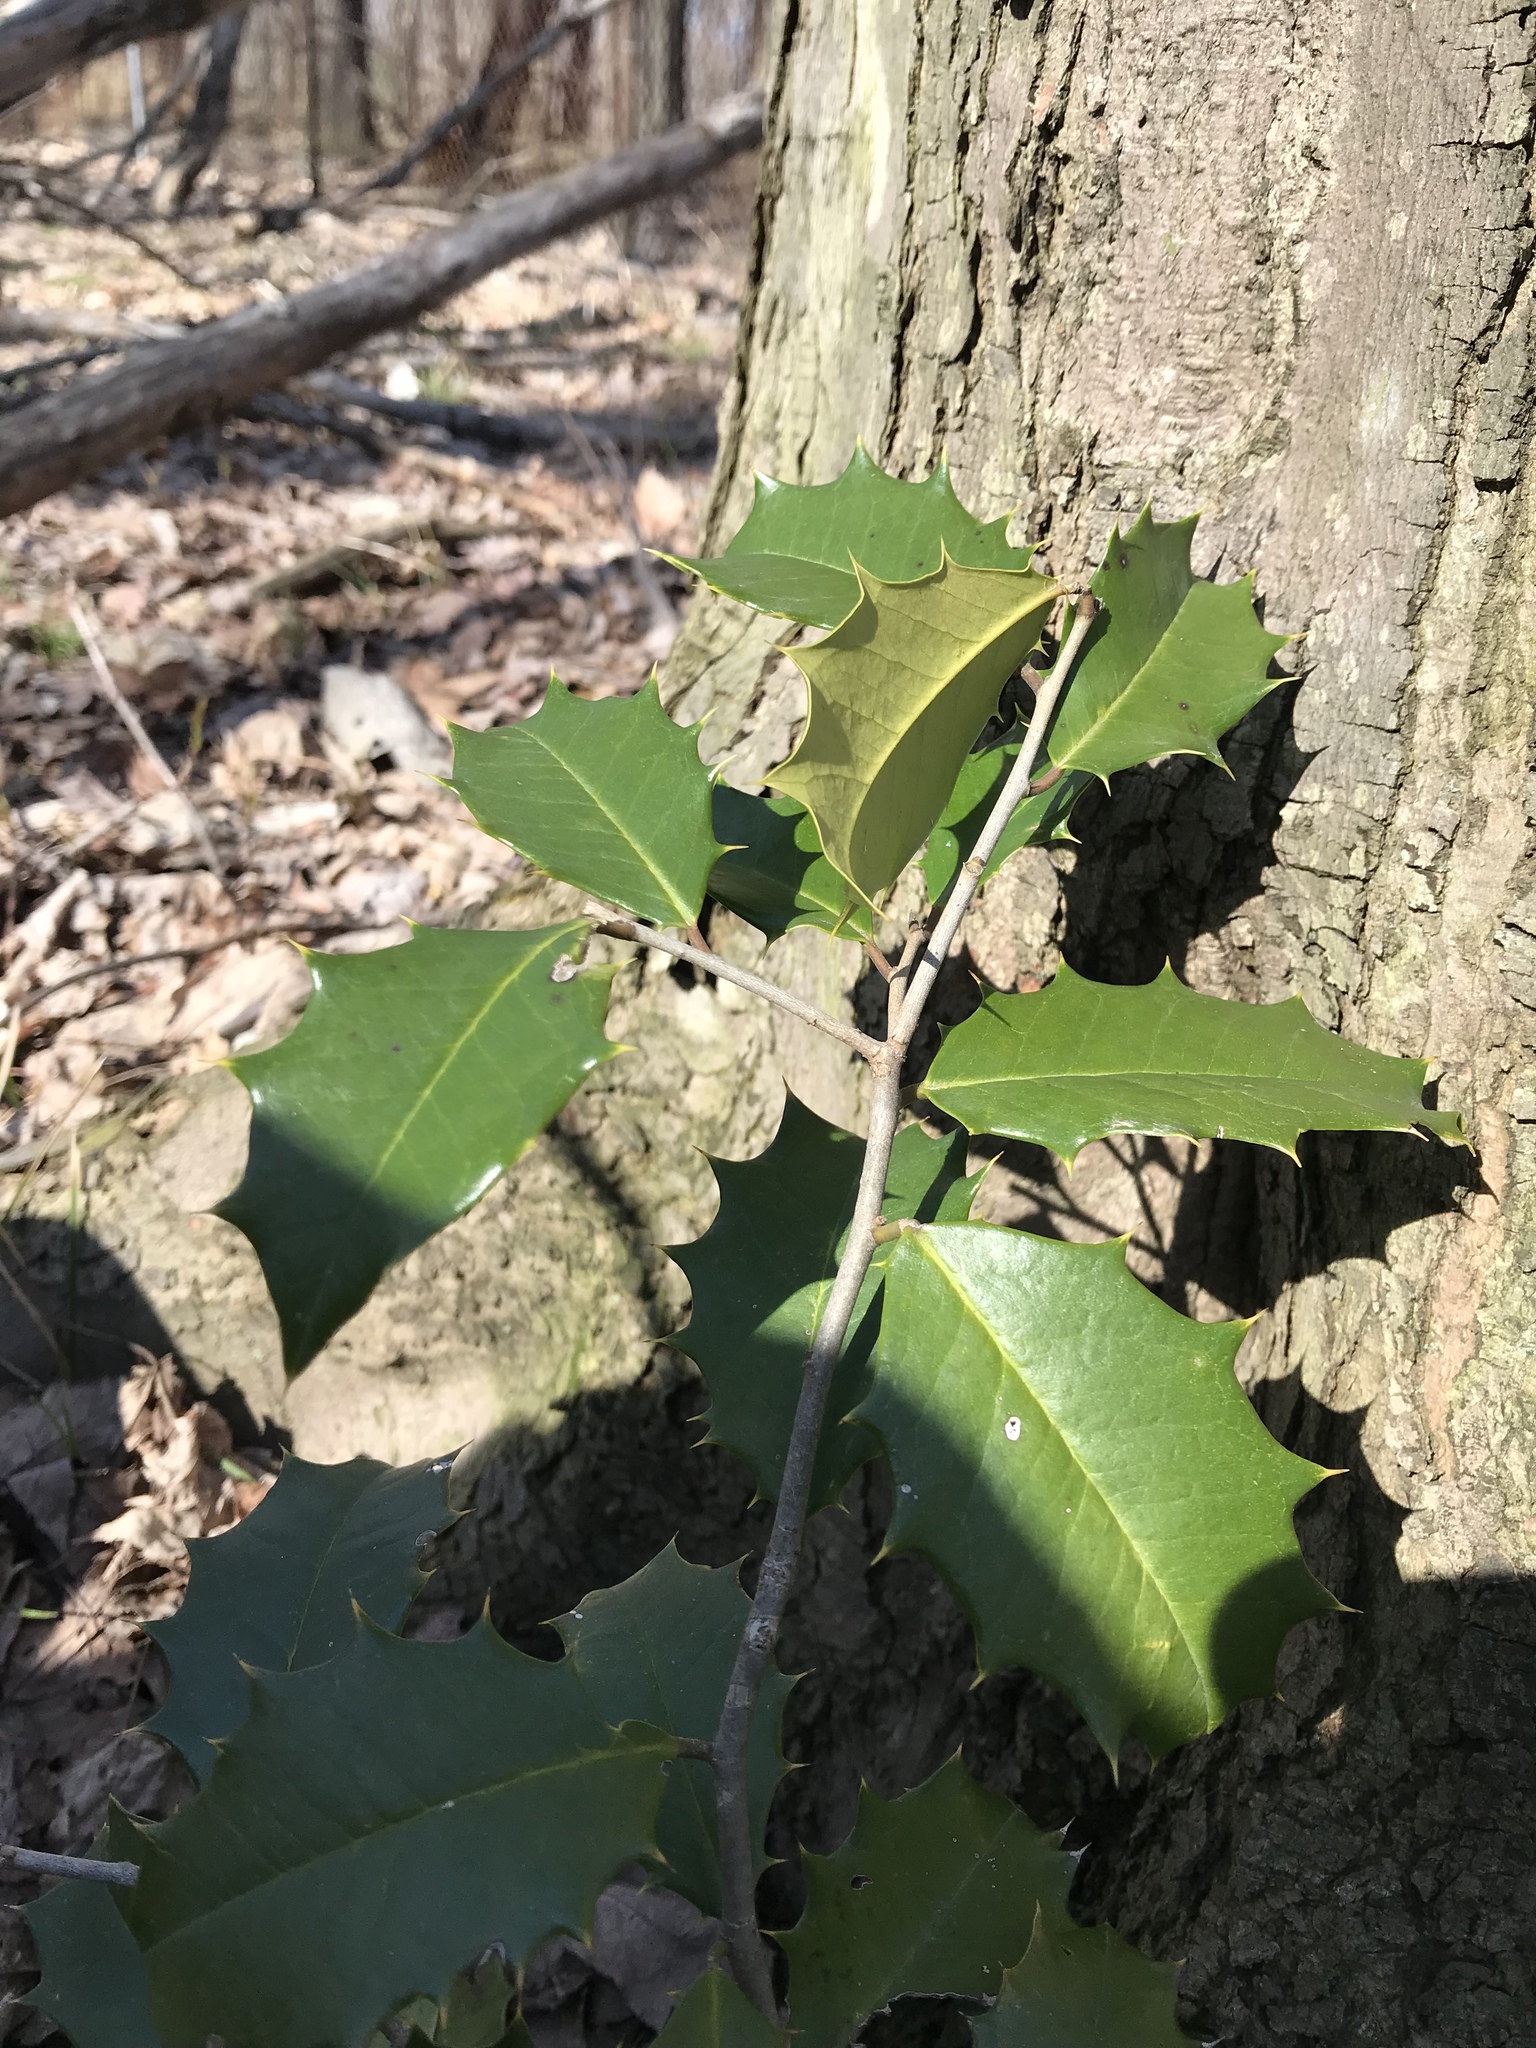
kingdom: Plantae
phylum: Tracheophyta
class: Magnoliopsida
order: Aquifoliales
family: Aquifoliaceae
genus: Ilex
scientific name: Ilex opaca
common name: American holly
